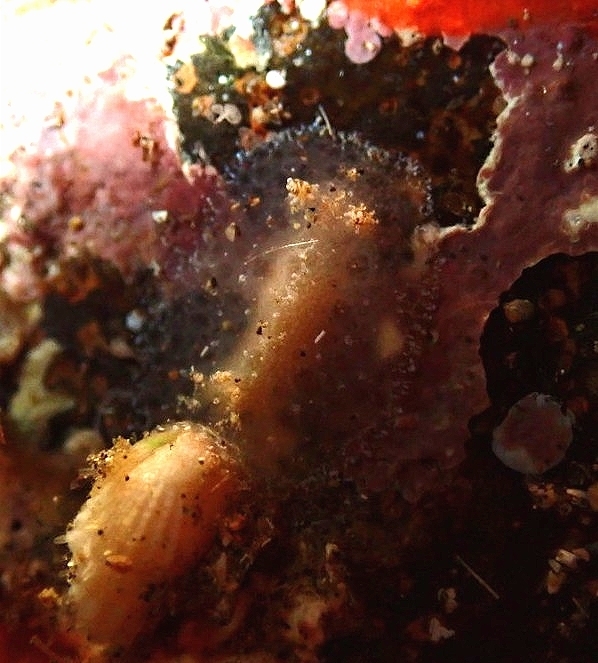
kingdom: Animalia
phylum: Mollusca
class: Gastropoda
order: Nudibranchia
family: Discodorididae
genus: Tayuva
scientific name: Tayuva lilacina
